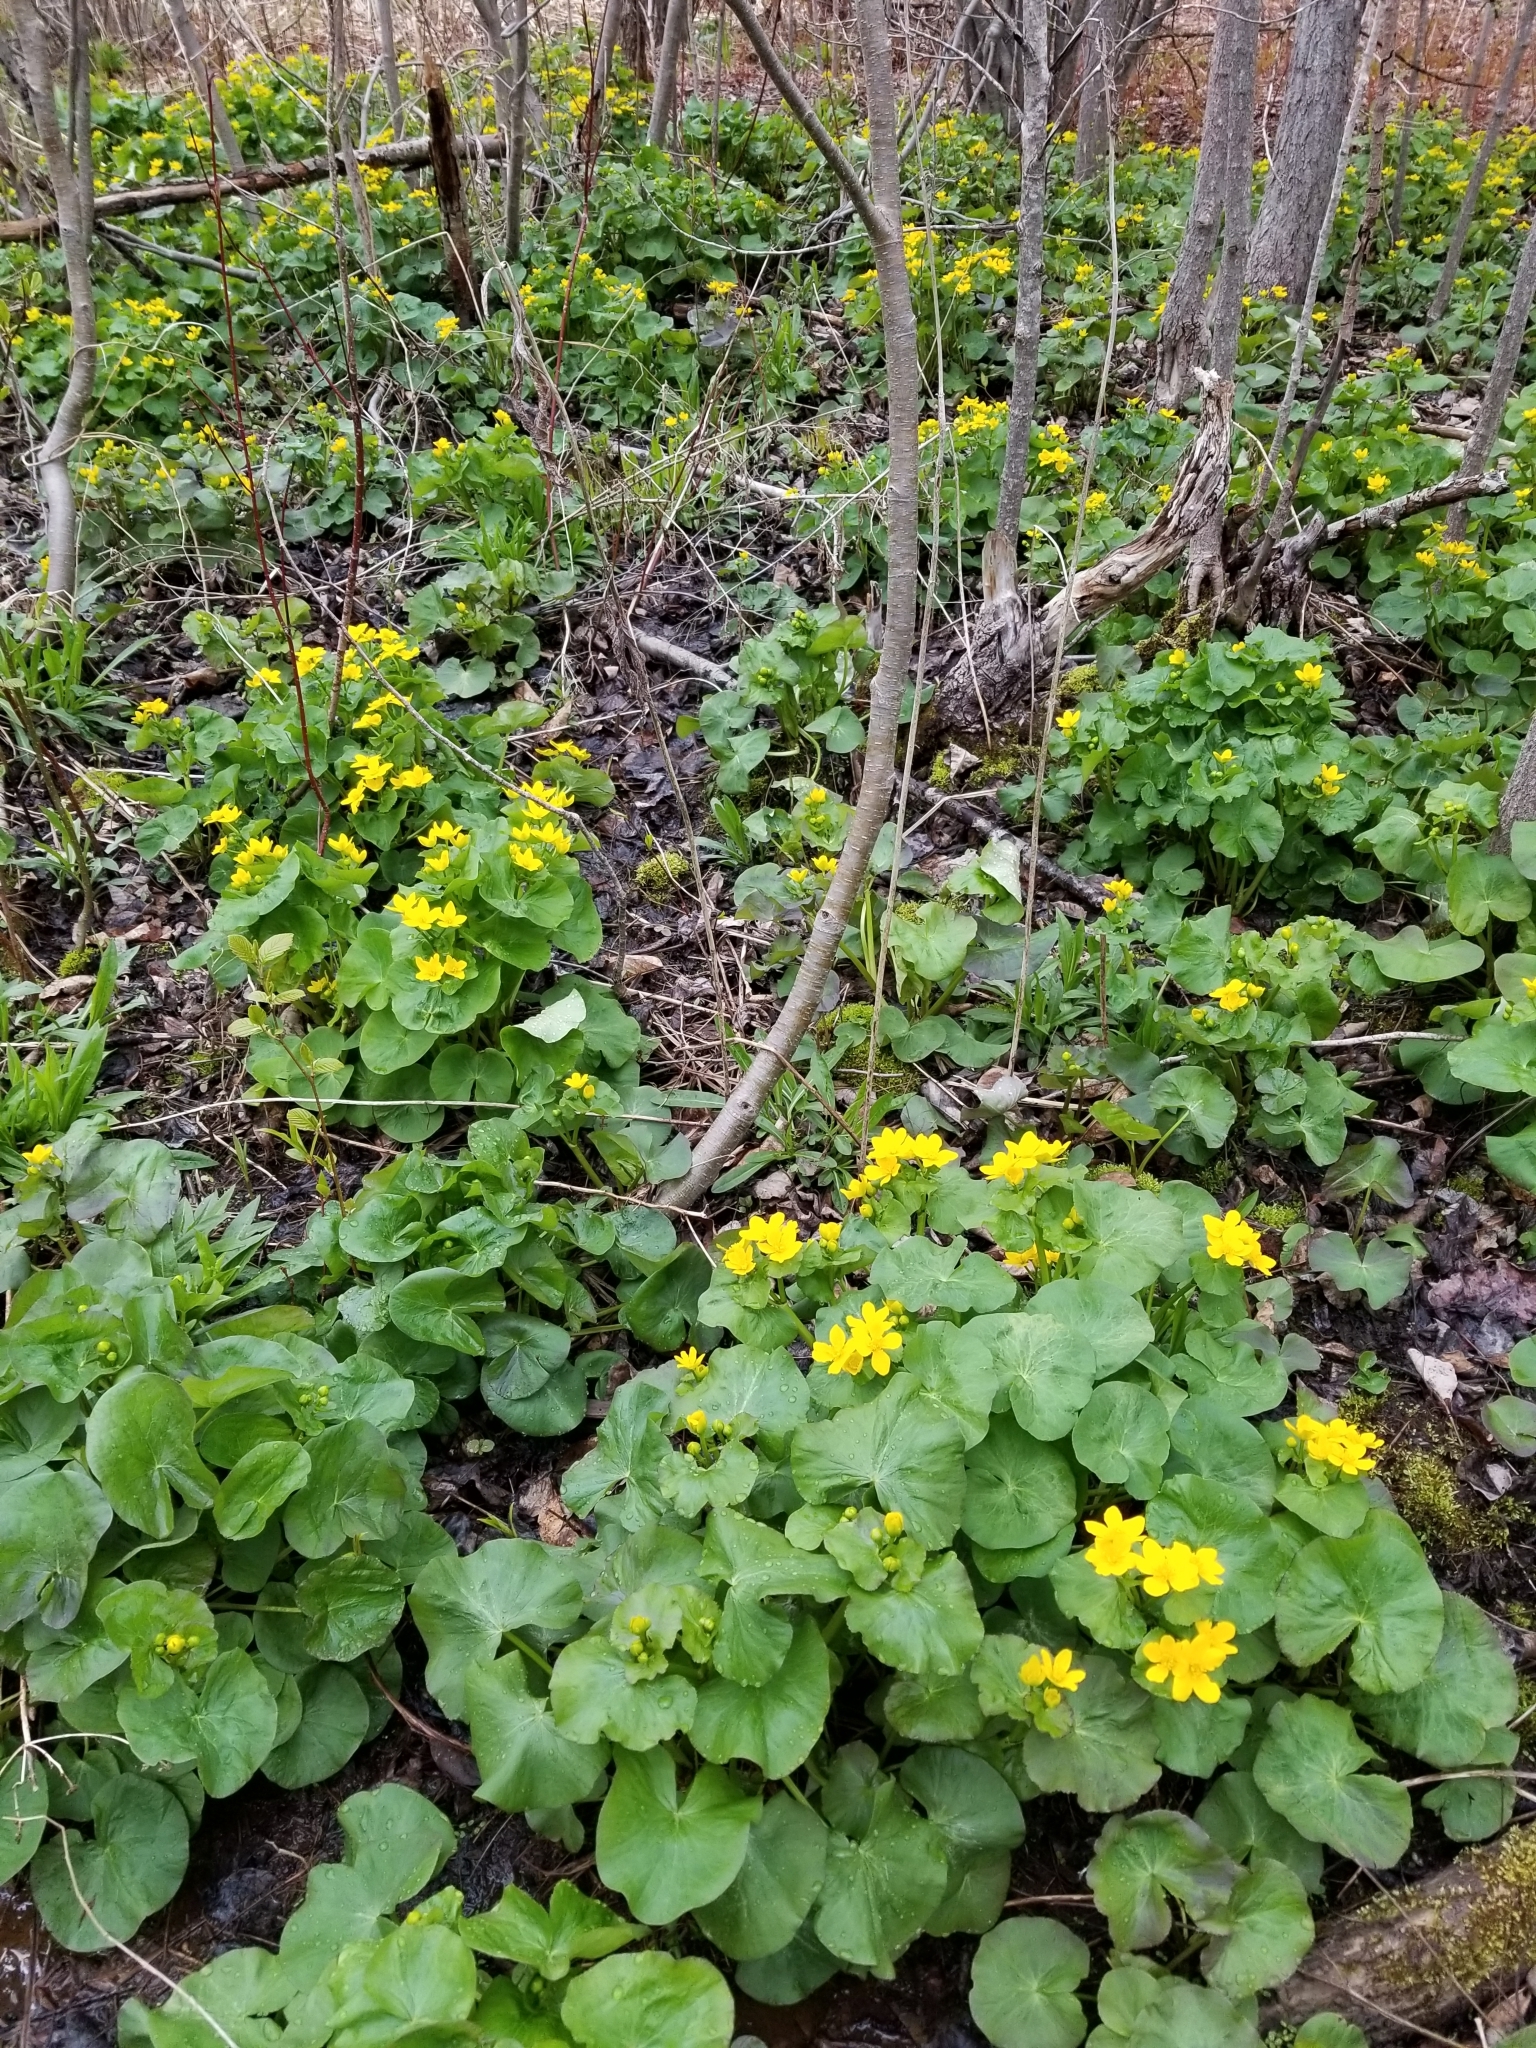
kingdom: Plantae
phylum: Tracheophyta
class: Magnoliopsida
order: Ranunculales
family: Ranunculaceae
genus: Caltha
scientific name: Caltha palustris
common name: Marsh marigold
